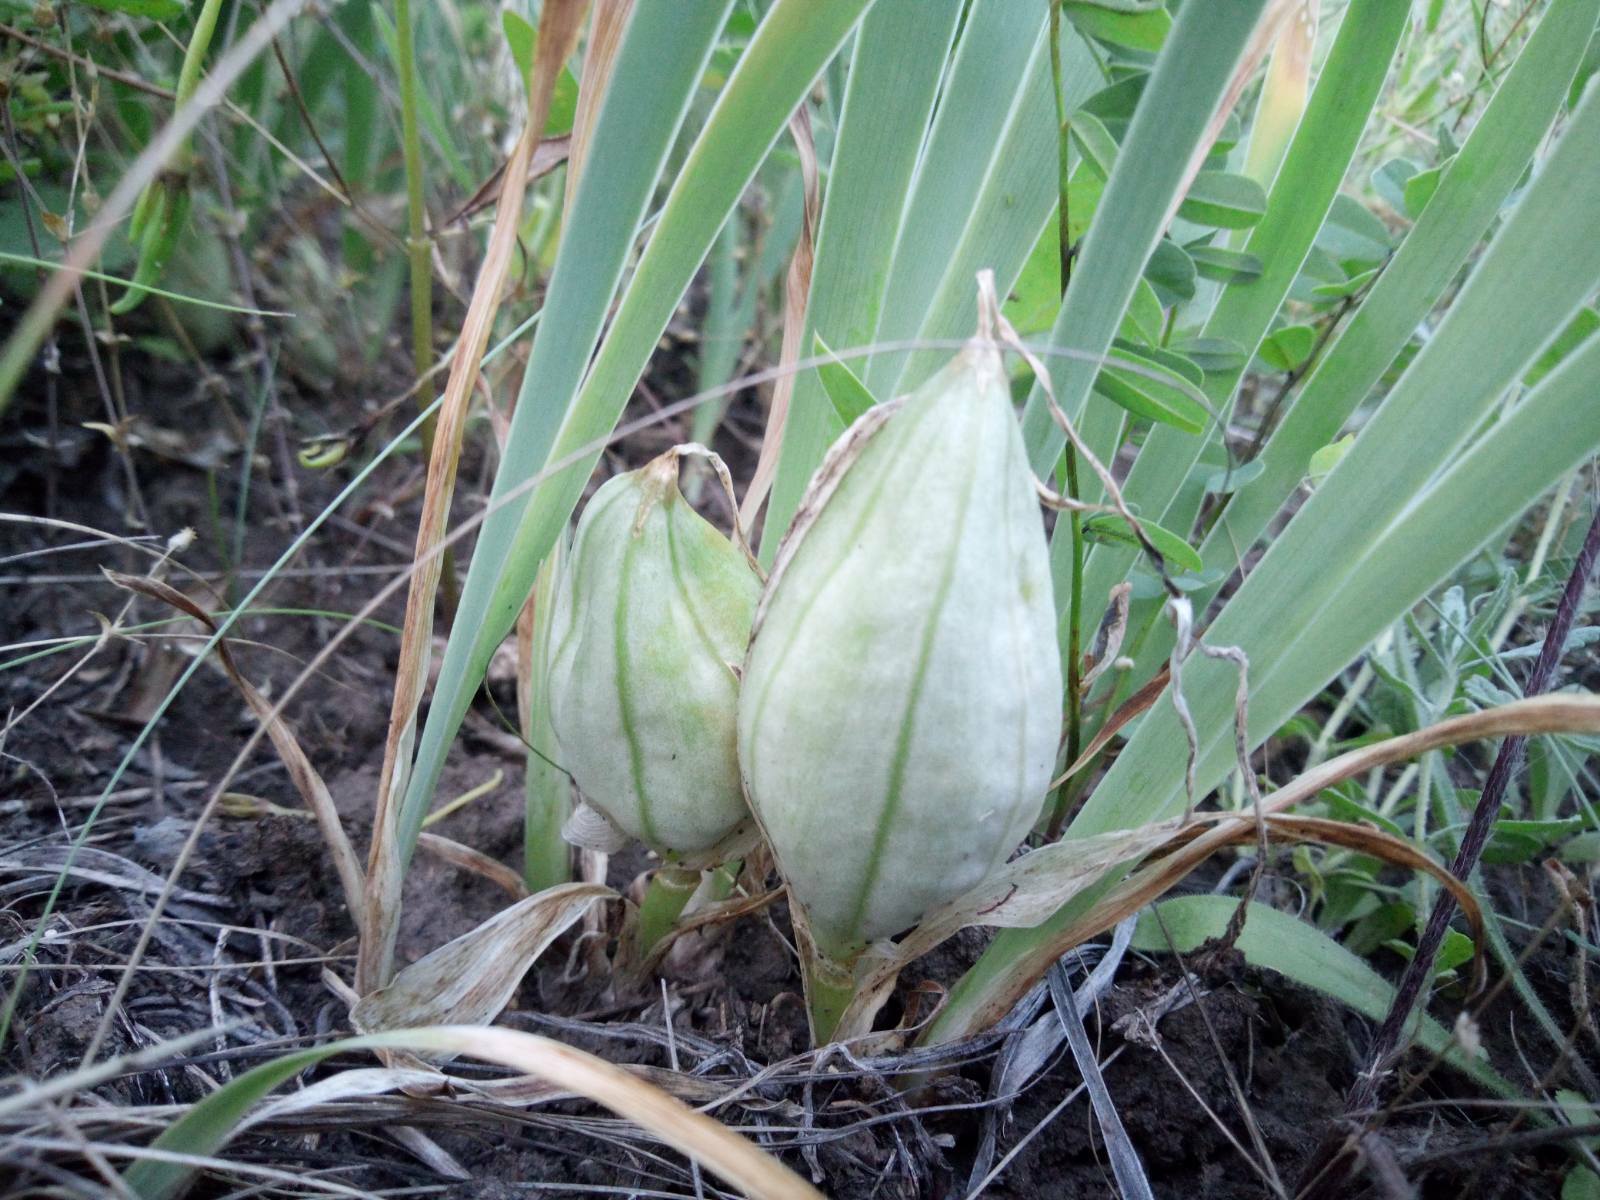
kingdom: Plantae
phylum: Tracheophyta
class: Liliopsida
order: Asparagales
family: Iridaceae
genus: Iris
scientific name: Iris pumila
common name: Dwarf iris
